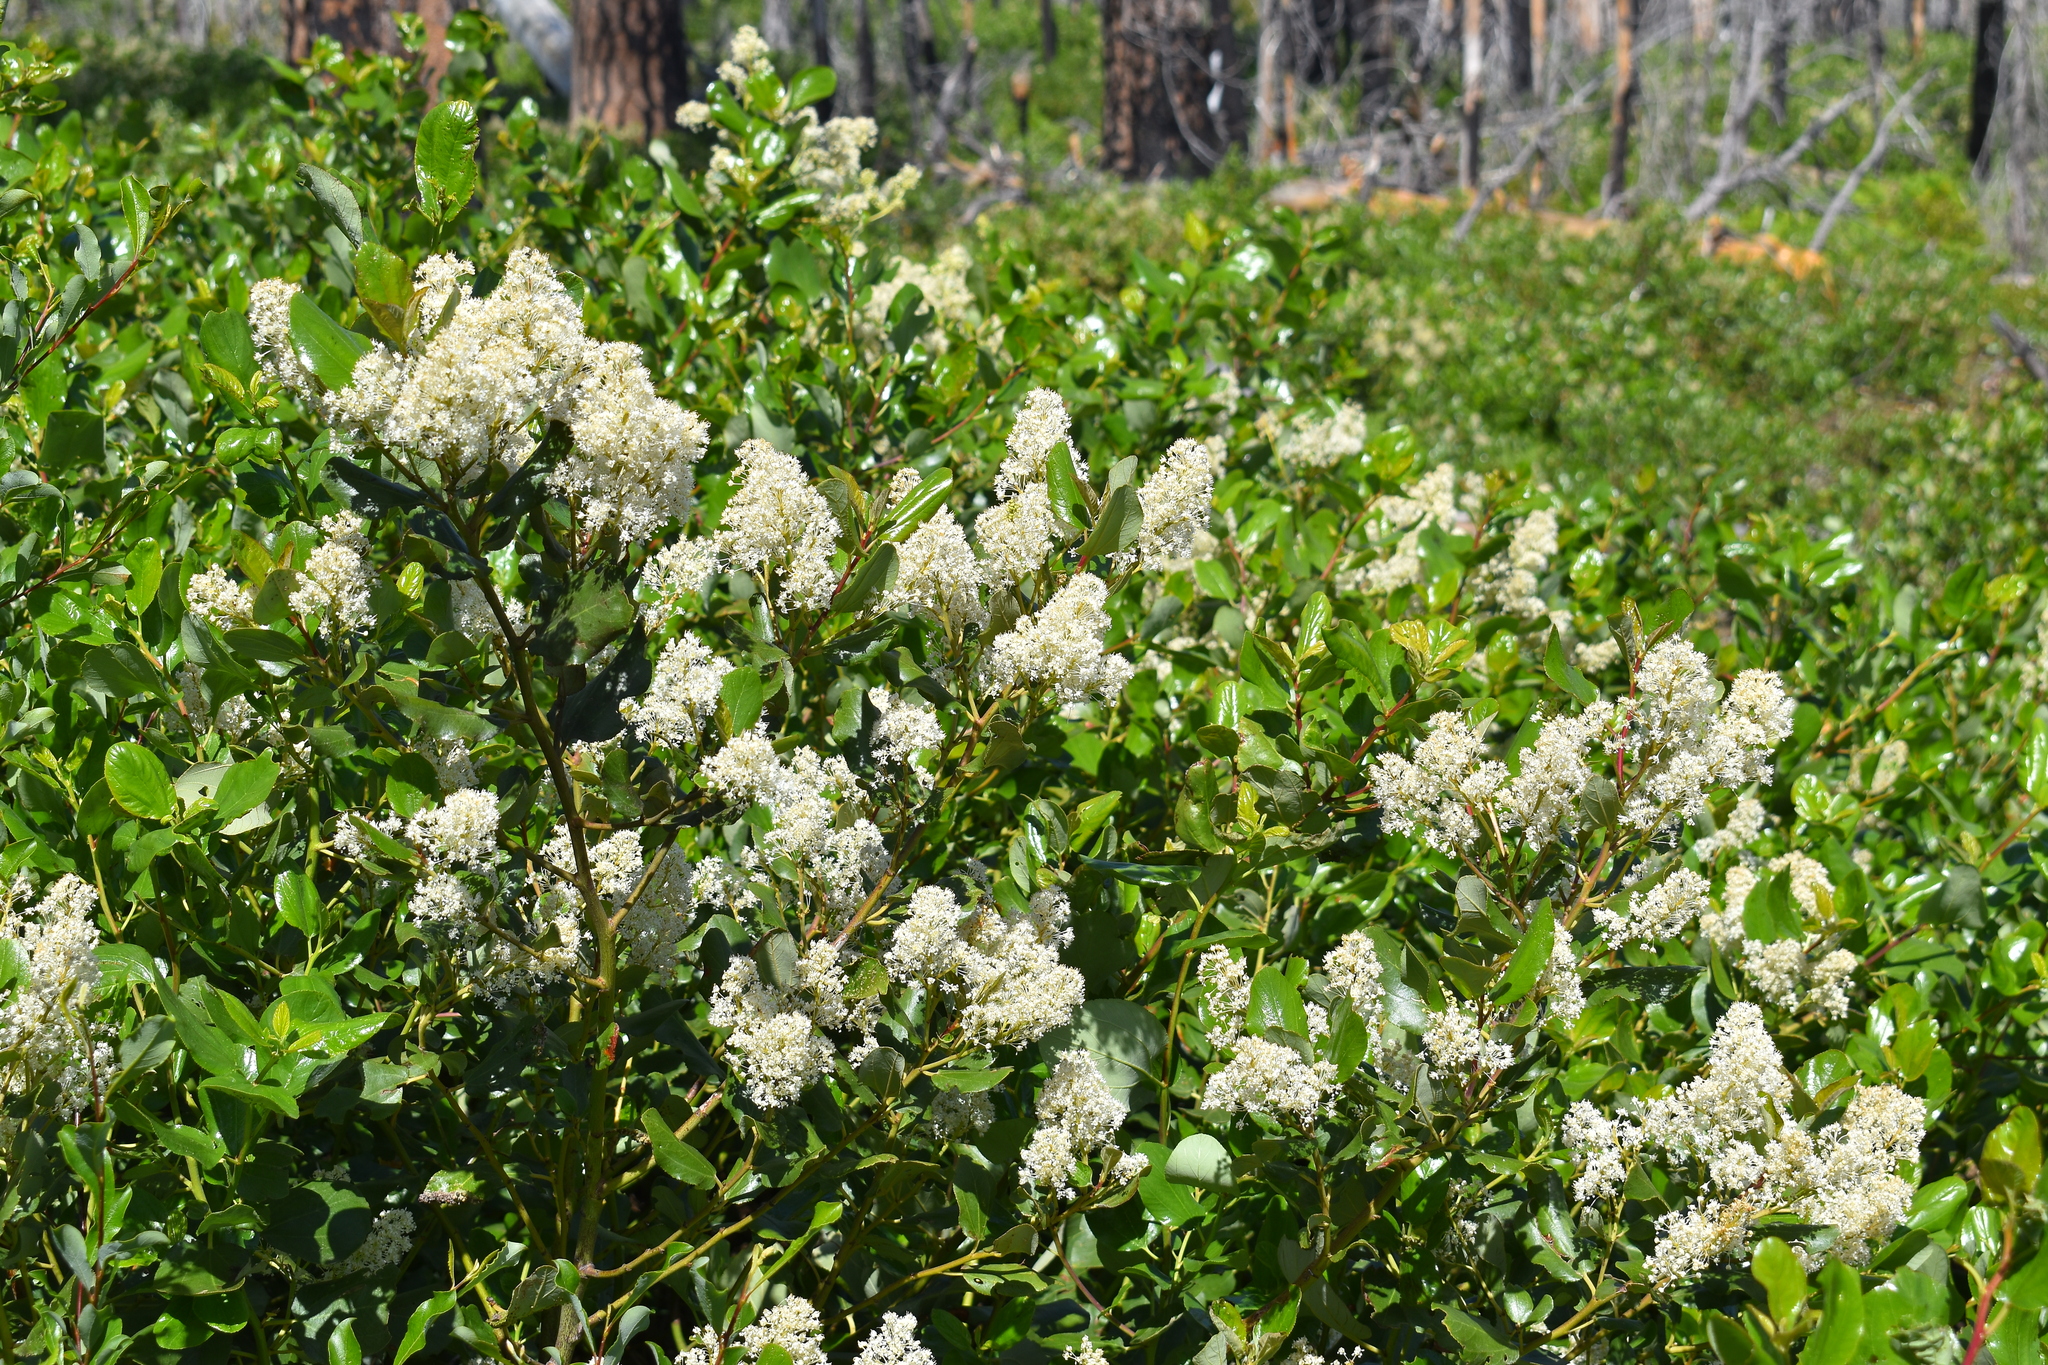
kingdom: Plantae
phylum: Tracheophyta
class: Magnoliopsida
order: Rosales
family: Rhamnaceae
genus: Ceanothus
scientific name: Ceanothus velutinus
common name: Snowbrush
